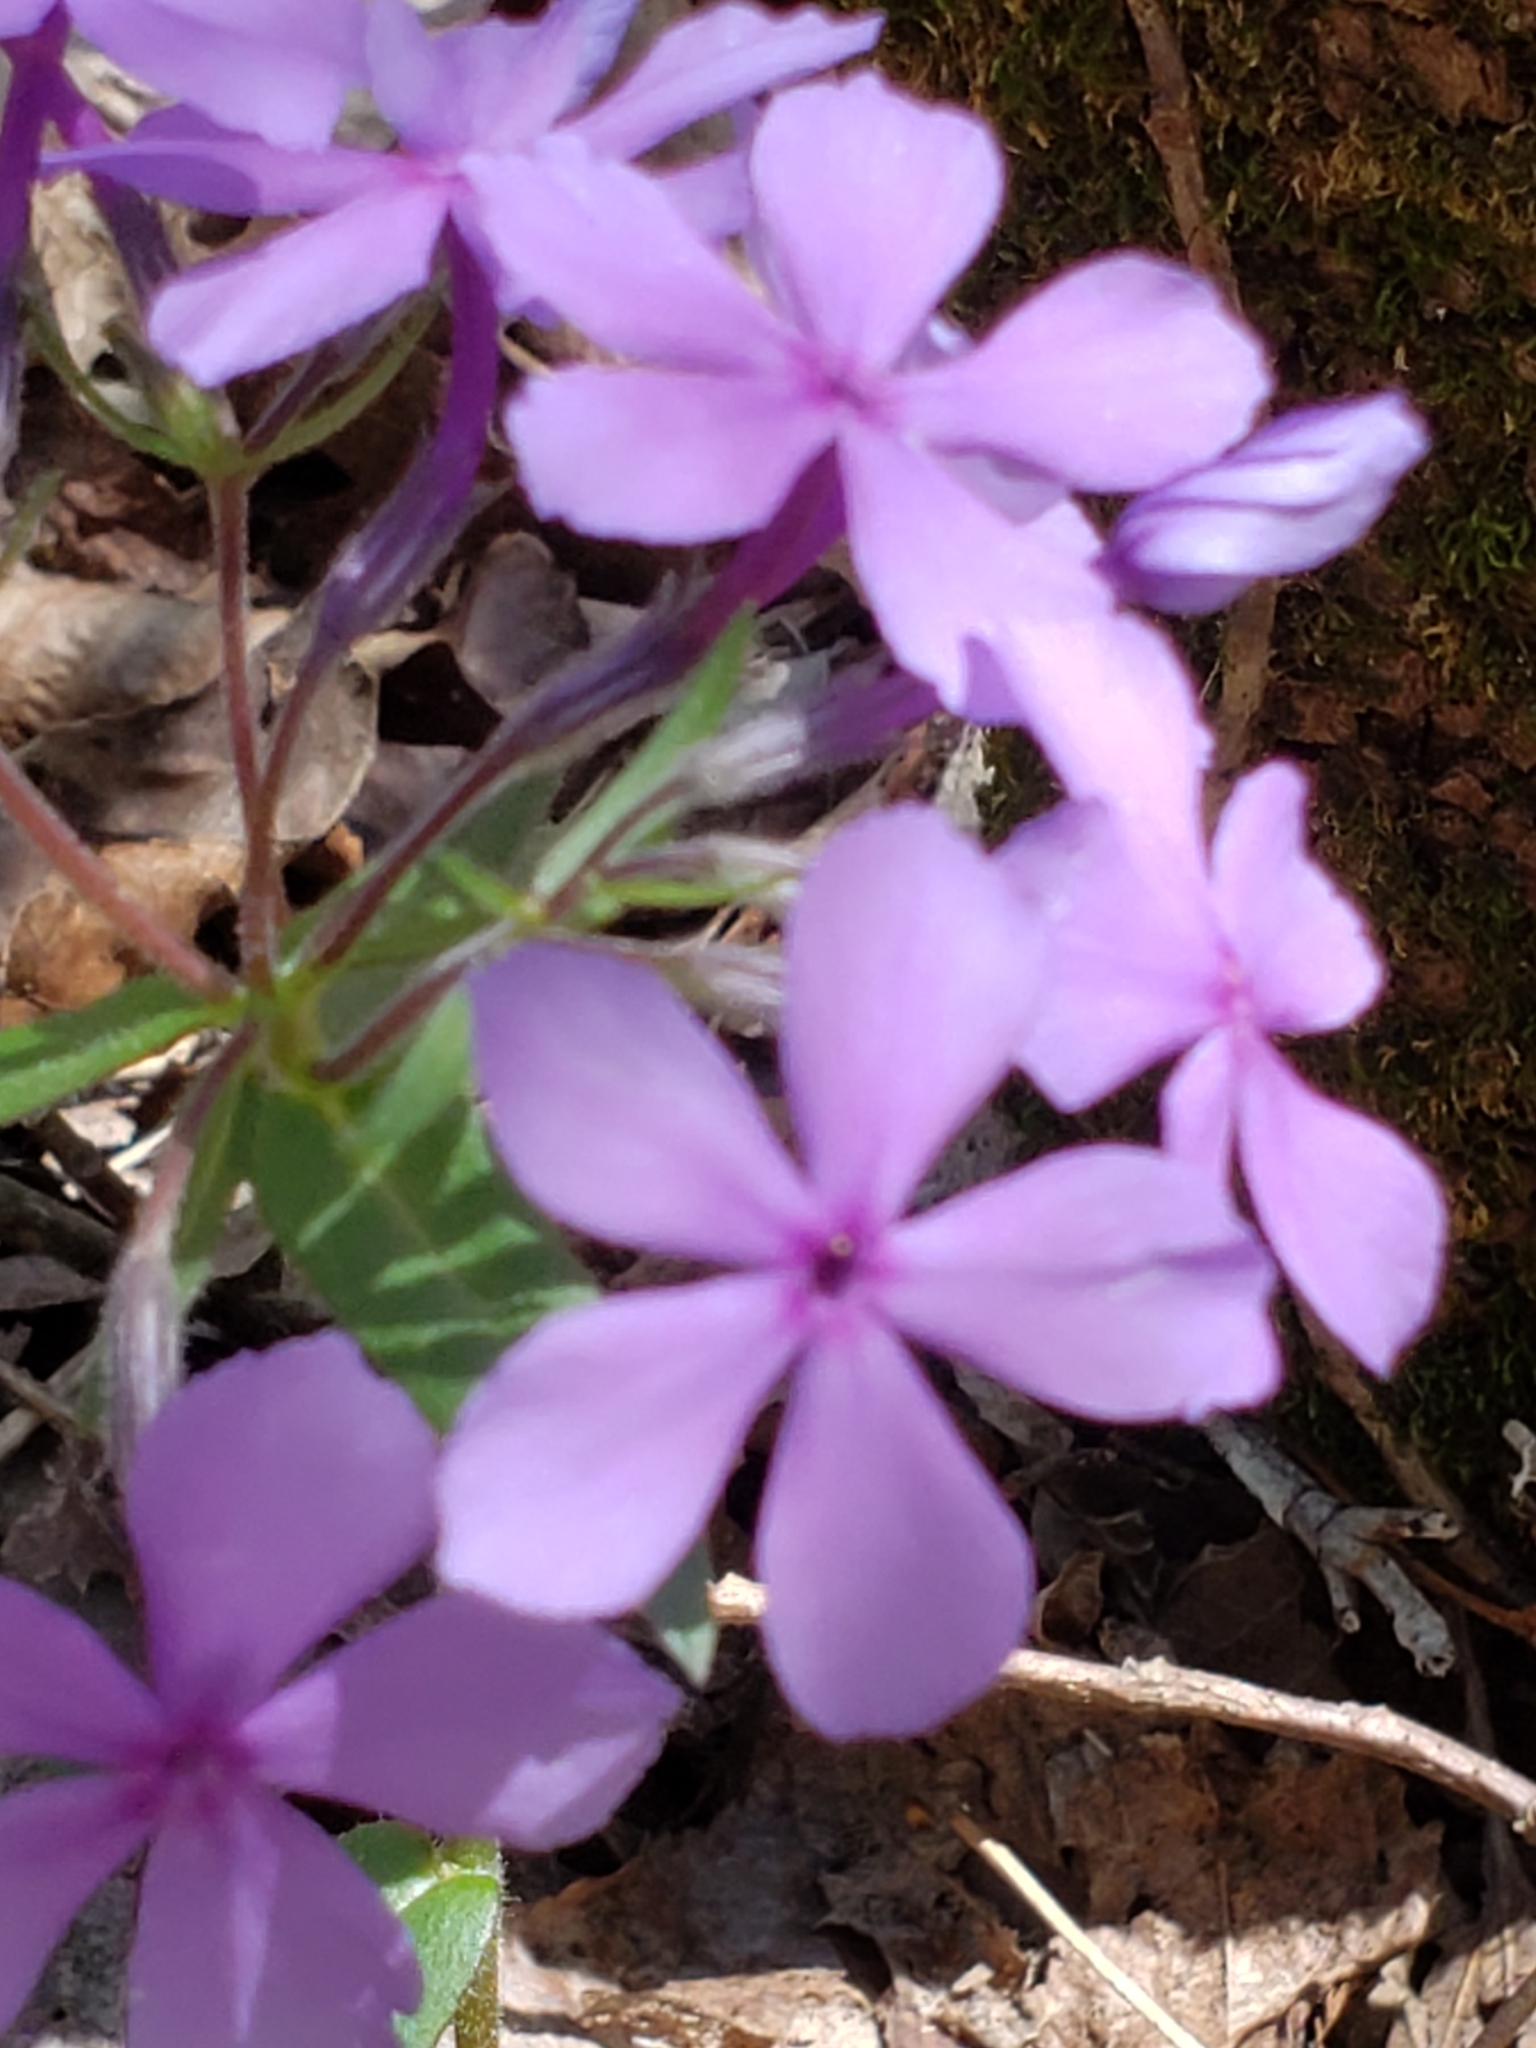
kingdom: Plantae
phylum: Tracheophyta
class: Magnoliopsida
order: Ericales
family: Polemoniaceae
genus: Phlox
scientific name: Phlox divaricata
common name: Blue phlox
